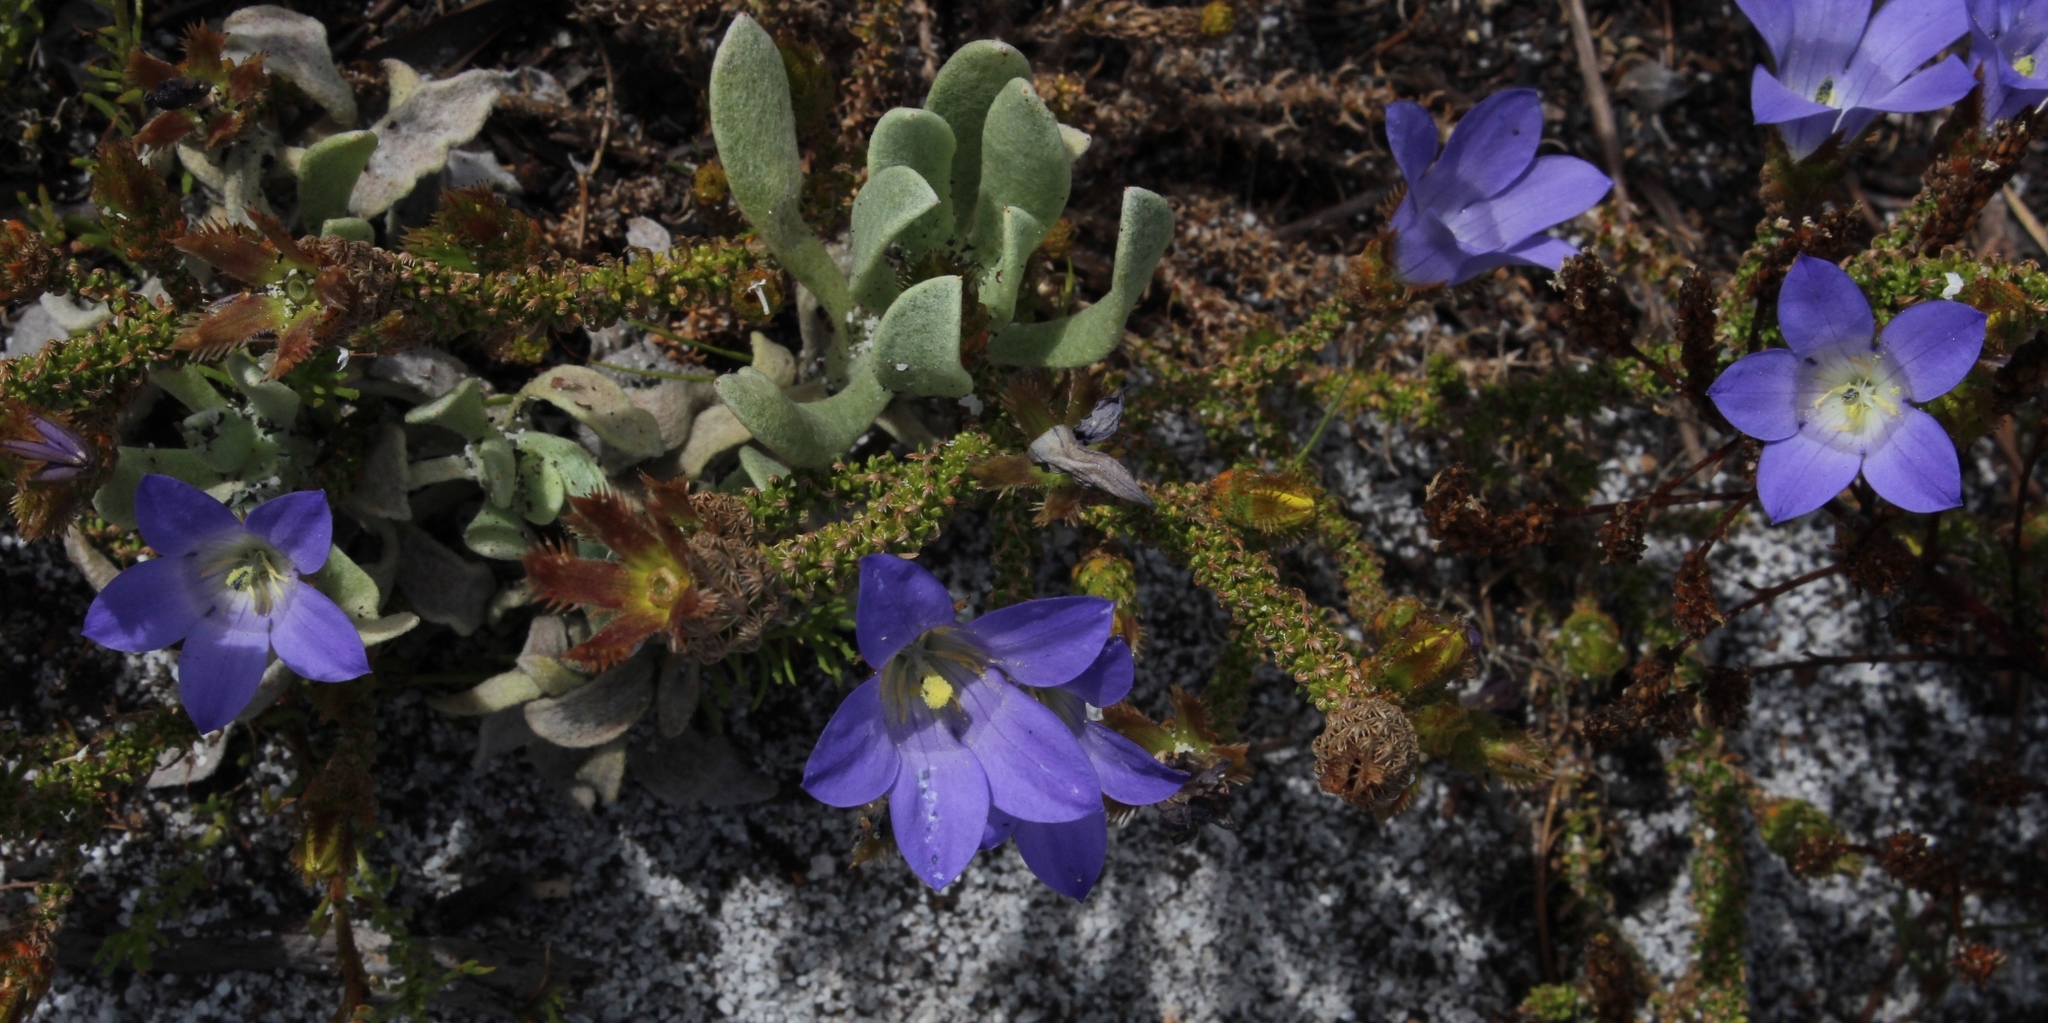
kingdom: Plantae
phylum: Tracheophyta
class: Magnoliopsida
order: Asterales
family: Campanulaceae
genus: Roella
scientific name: Roella incurva
